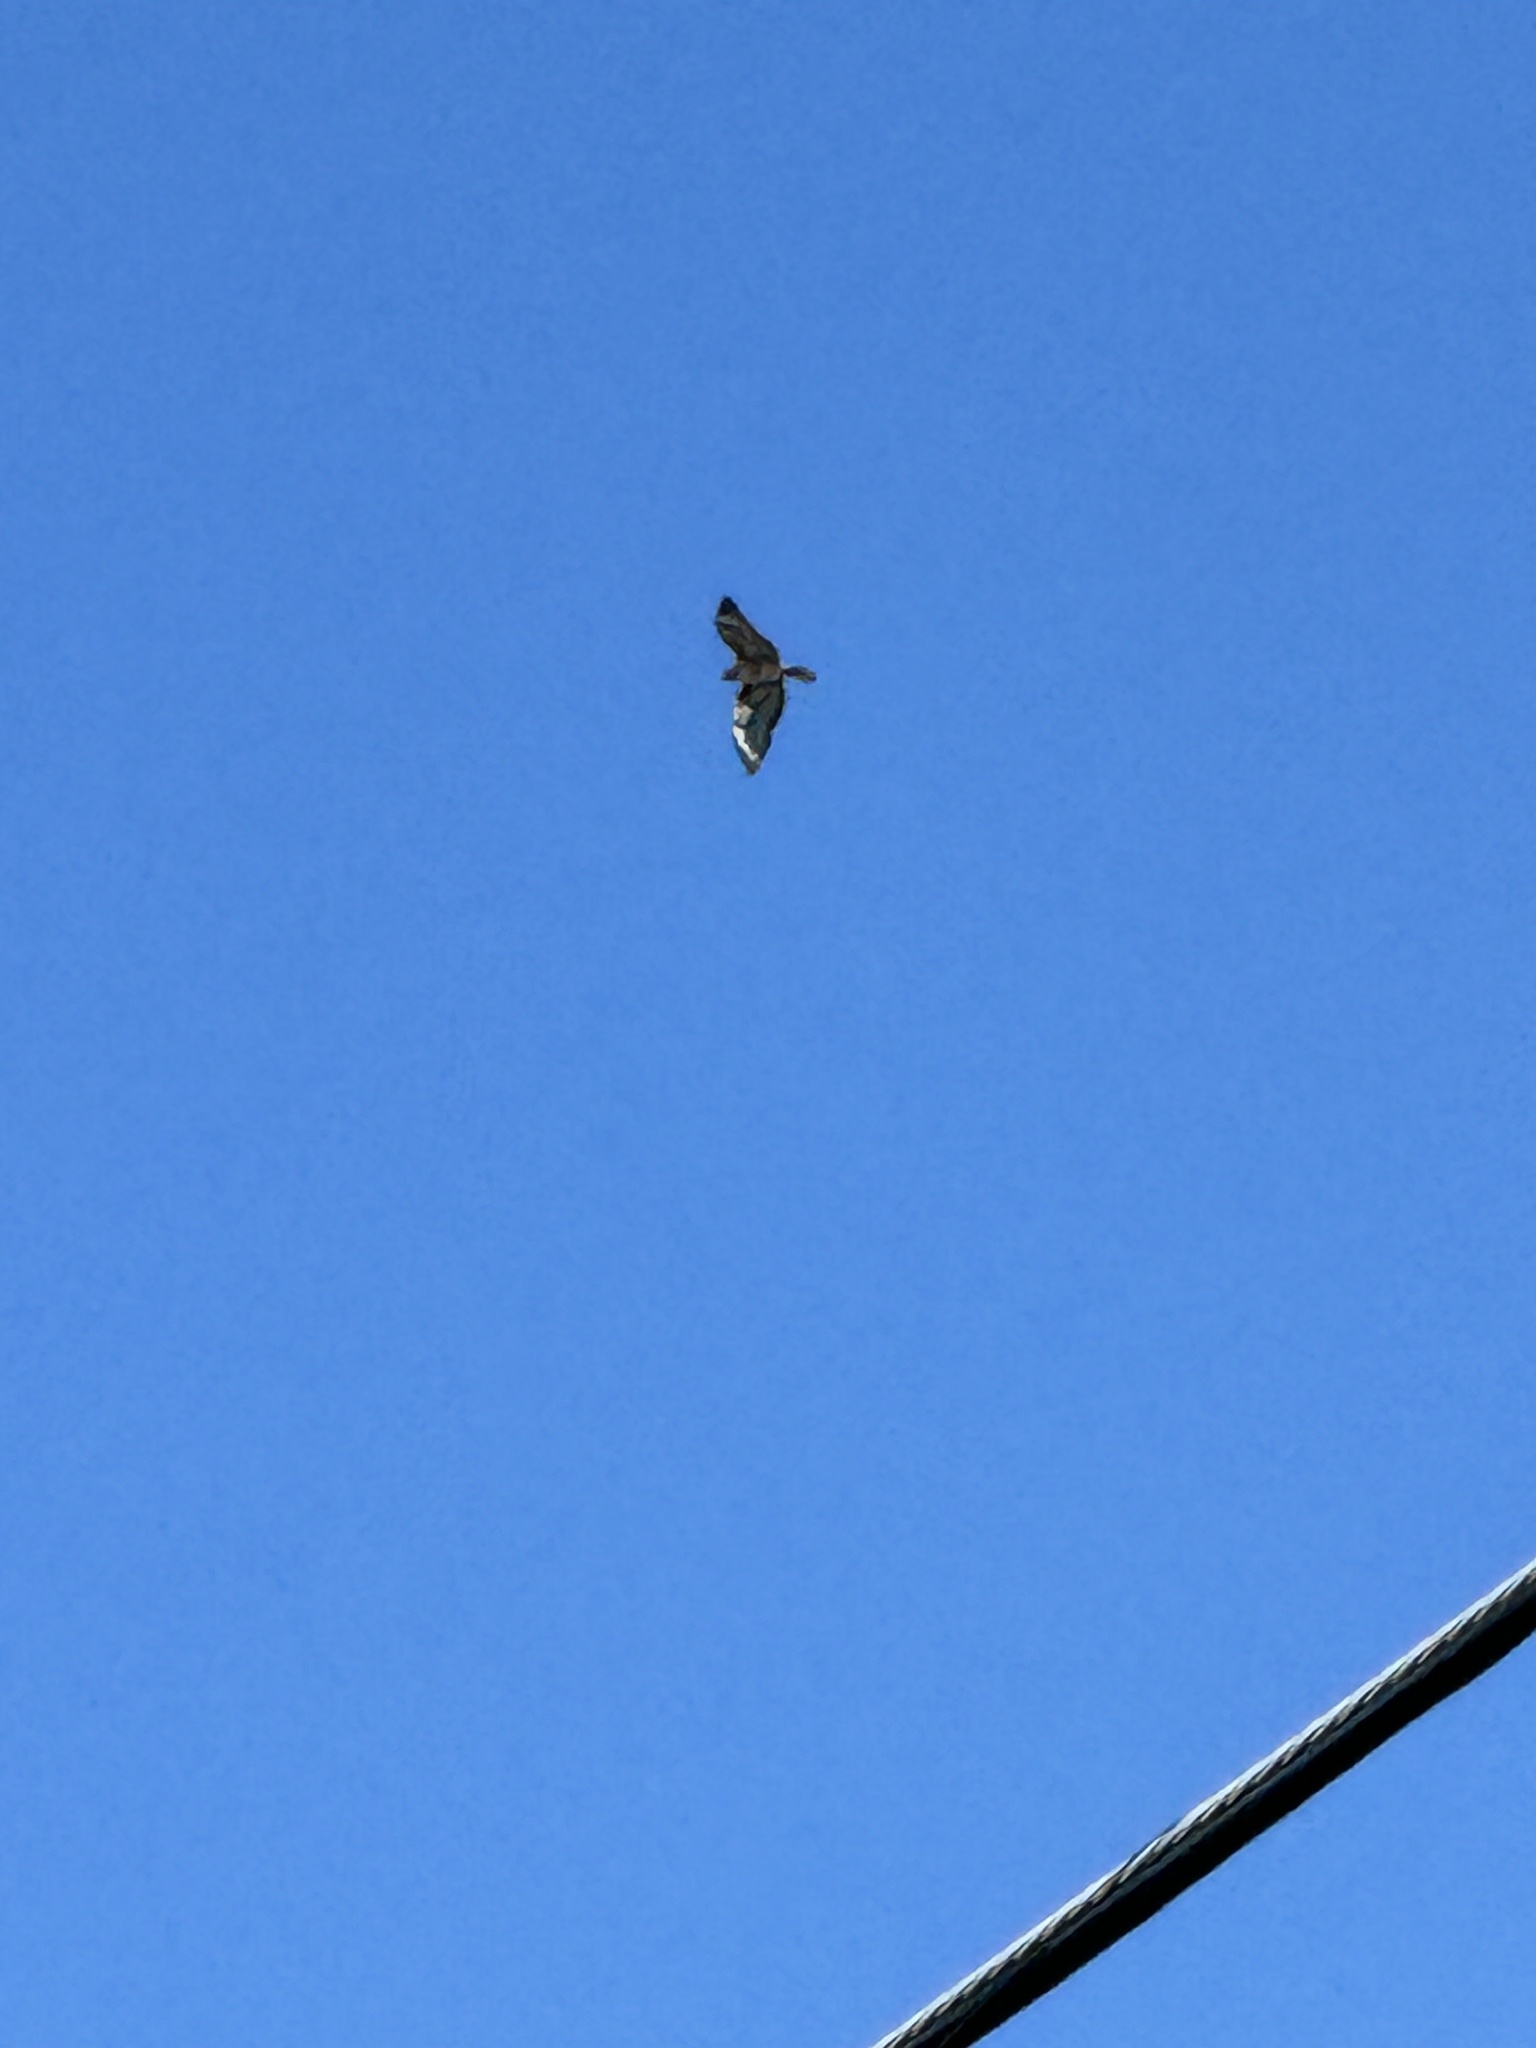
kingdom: Animalia
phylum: Chordata
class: Aves
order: Accipitriformes
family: Accipitridae
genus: Buteo
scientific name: Buteo jamaicensis
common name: Red-tailed hawk
